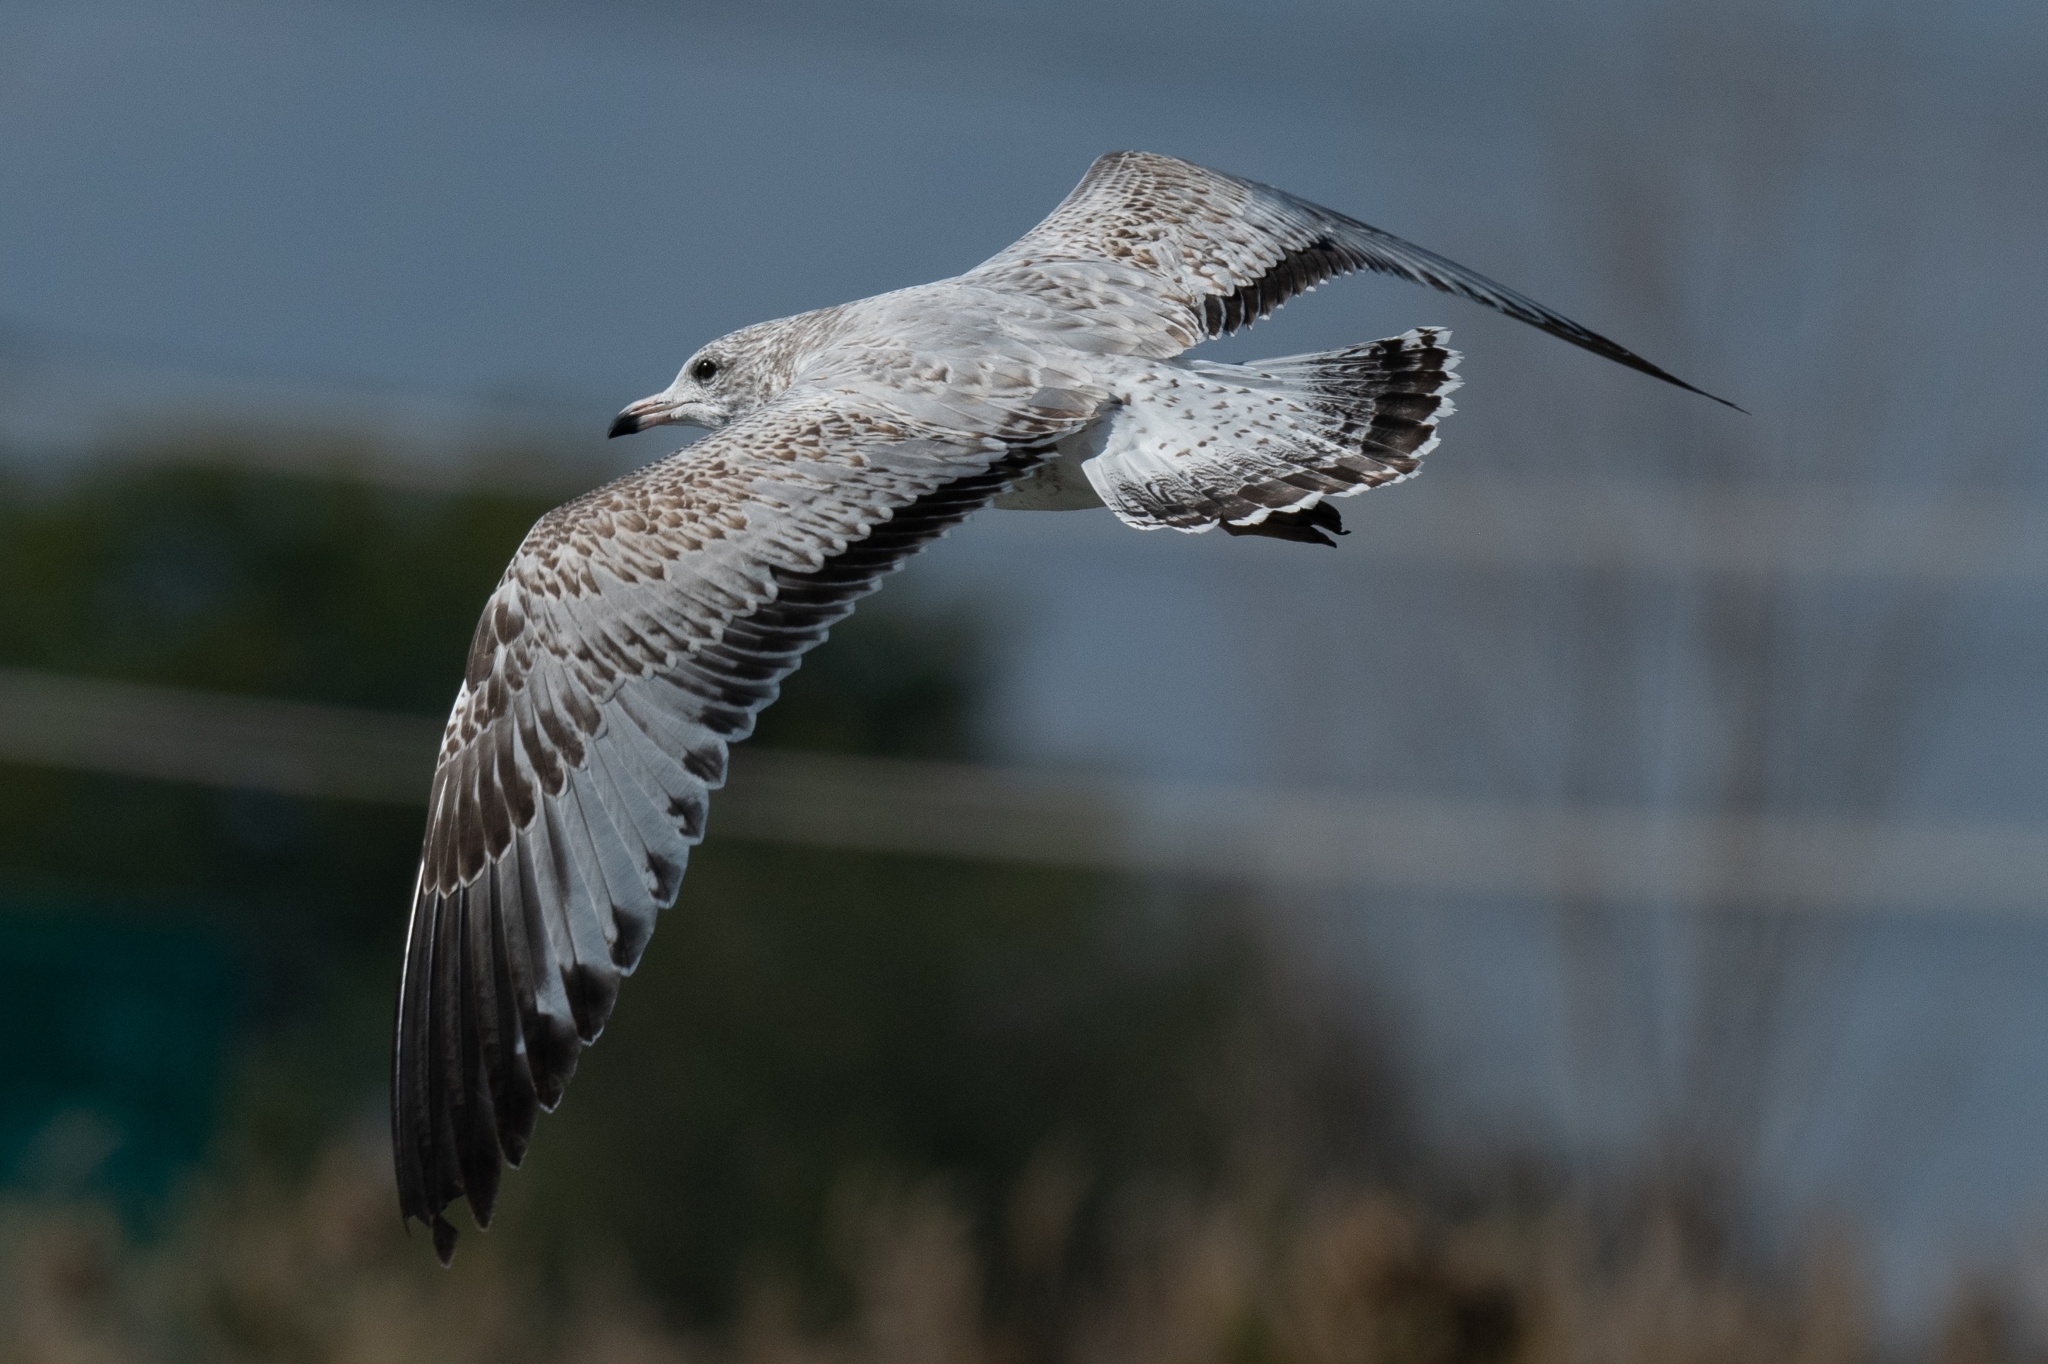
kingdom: Animalia
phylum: Chordata
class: Aves
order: Charadriiformes
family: Laridae
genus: Larus
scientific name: Larus delawarensis
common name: Ring-billed gull
